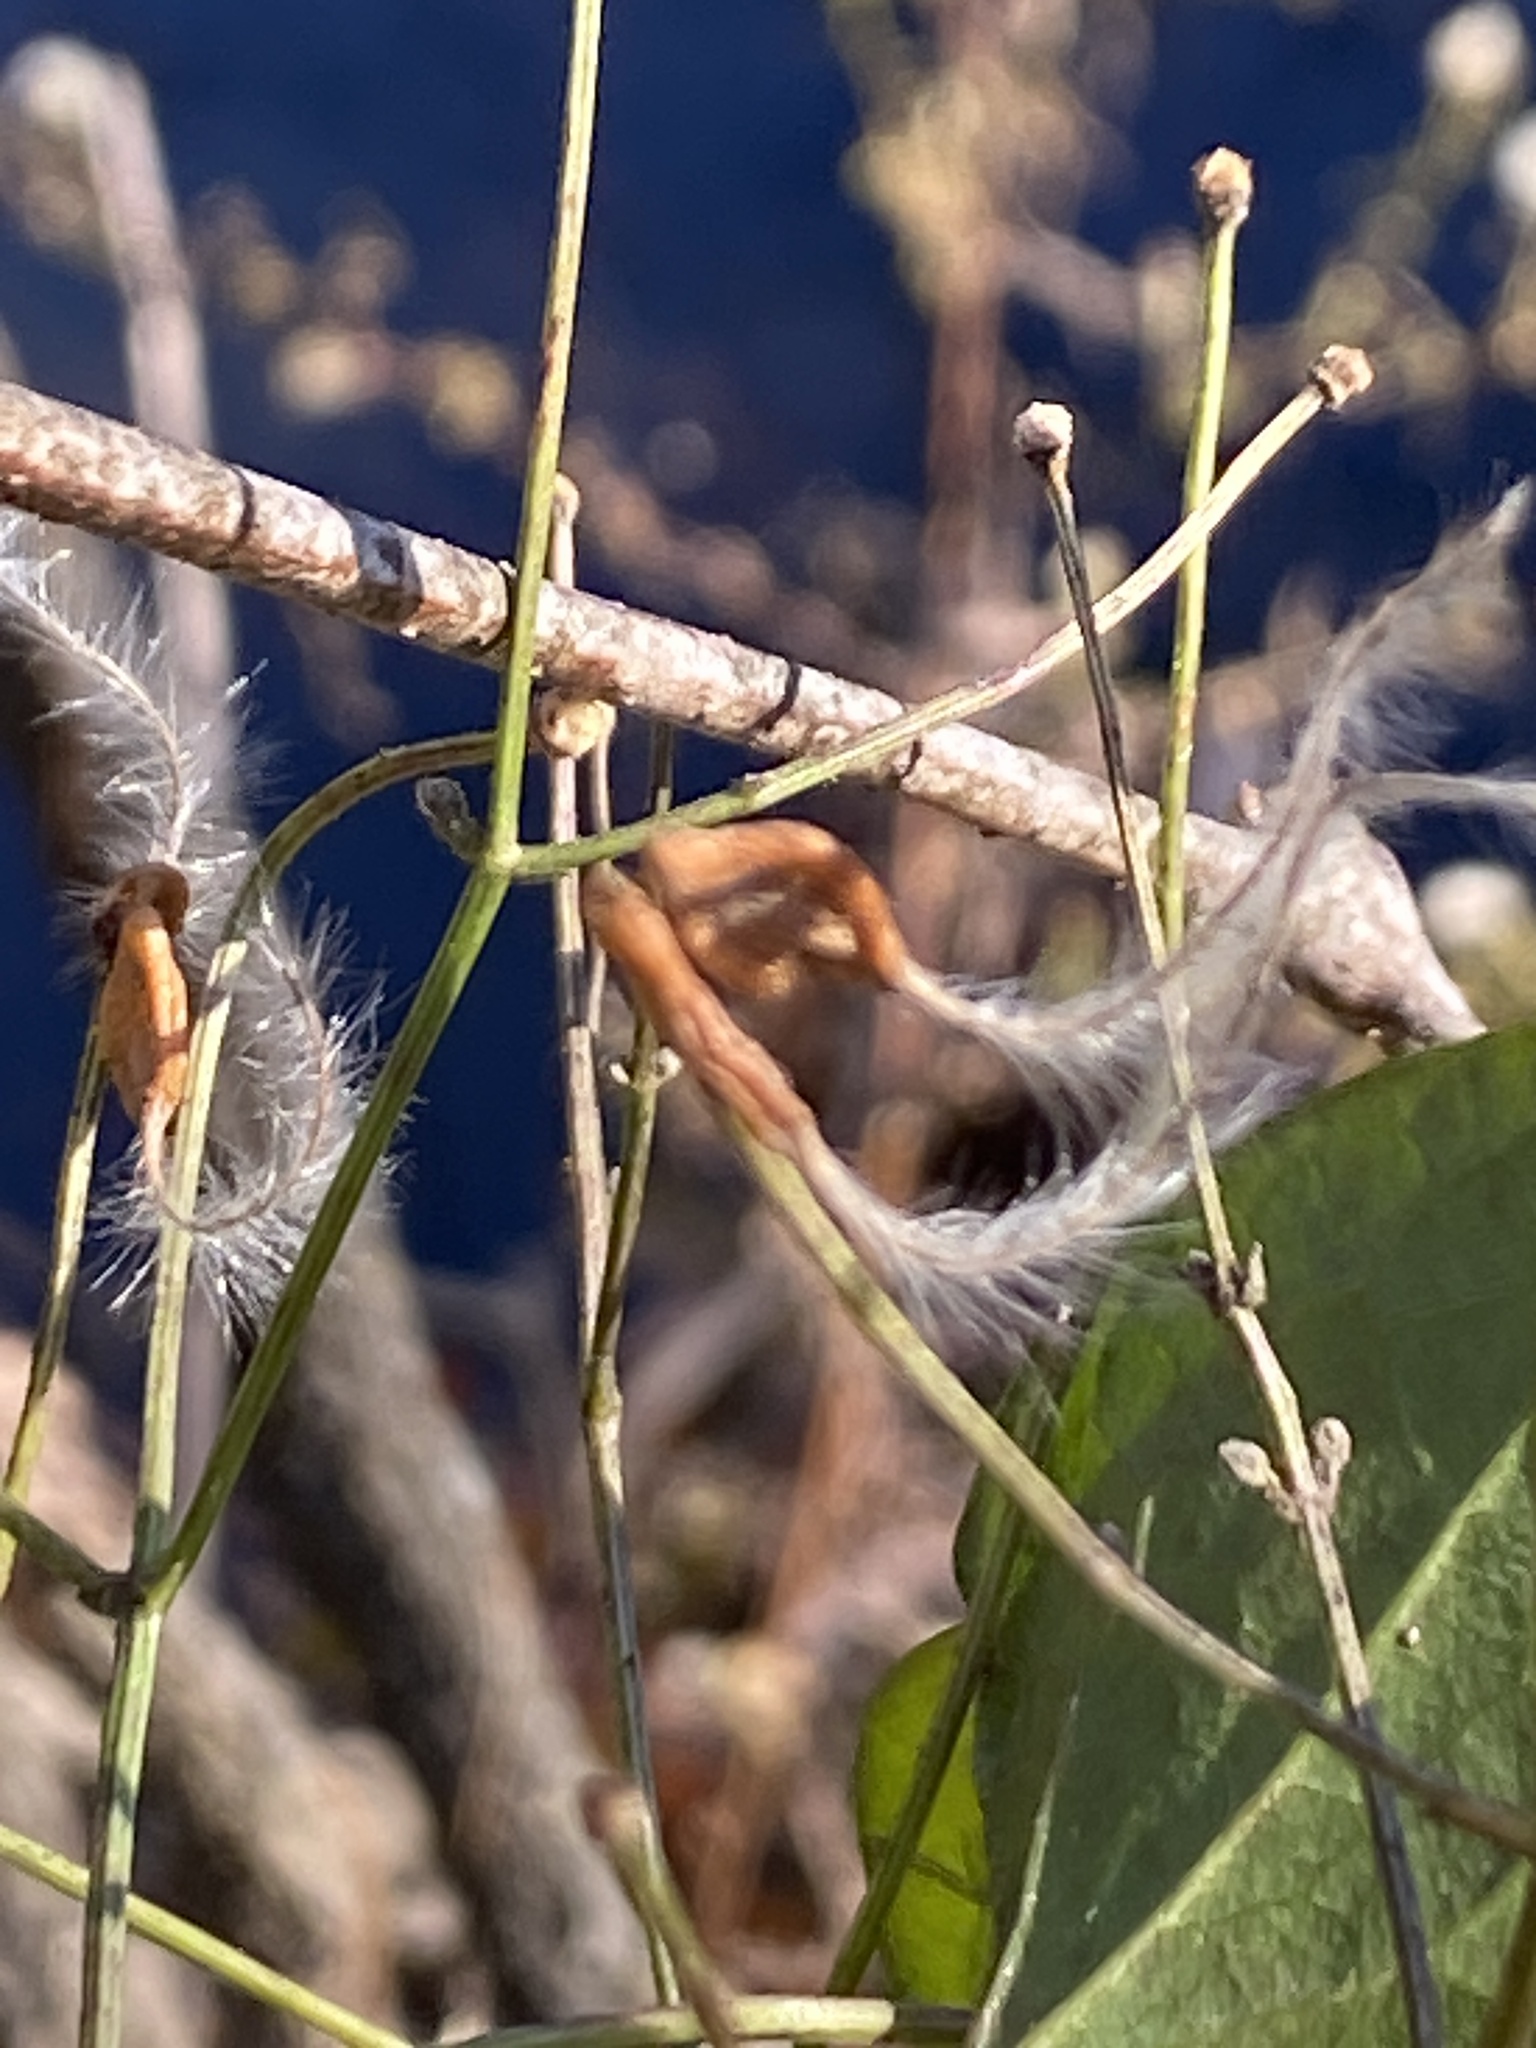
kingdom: Plantae
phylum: Tracheophyta
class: Magnoliopsida
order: Ranunculales
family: Ranunculaceae
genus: Clematis
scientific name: Clematis terniflora
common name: Sweet autumn clematis
